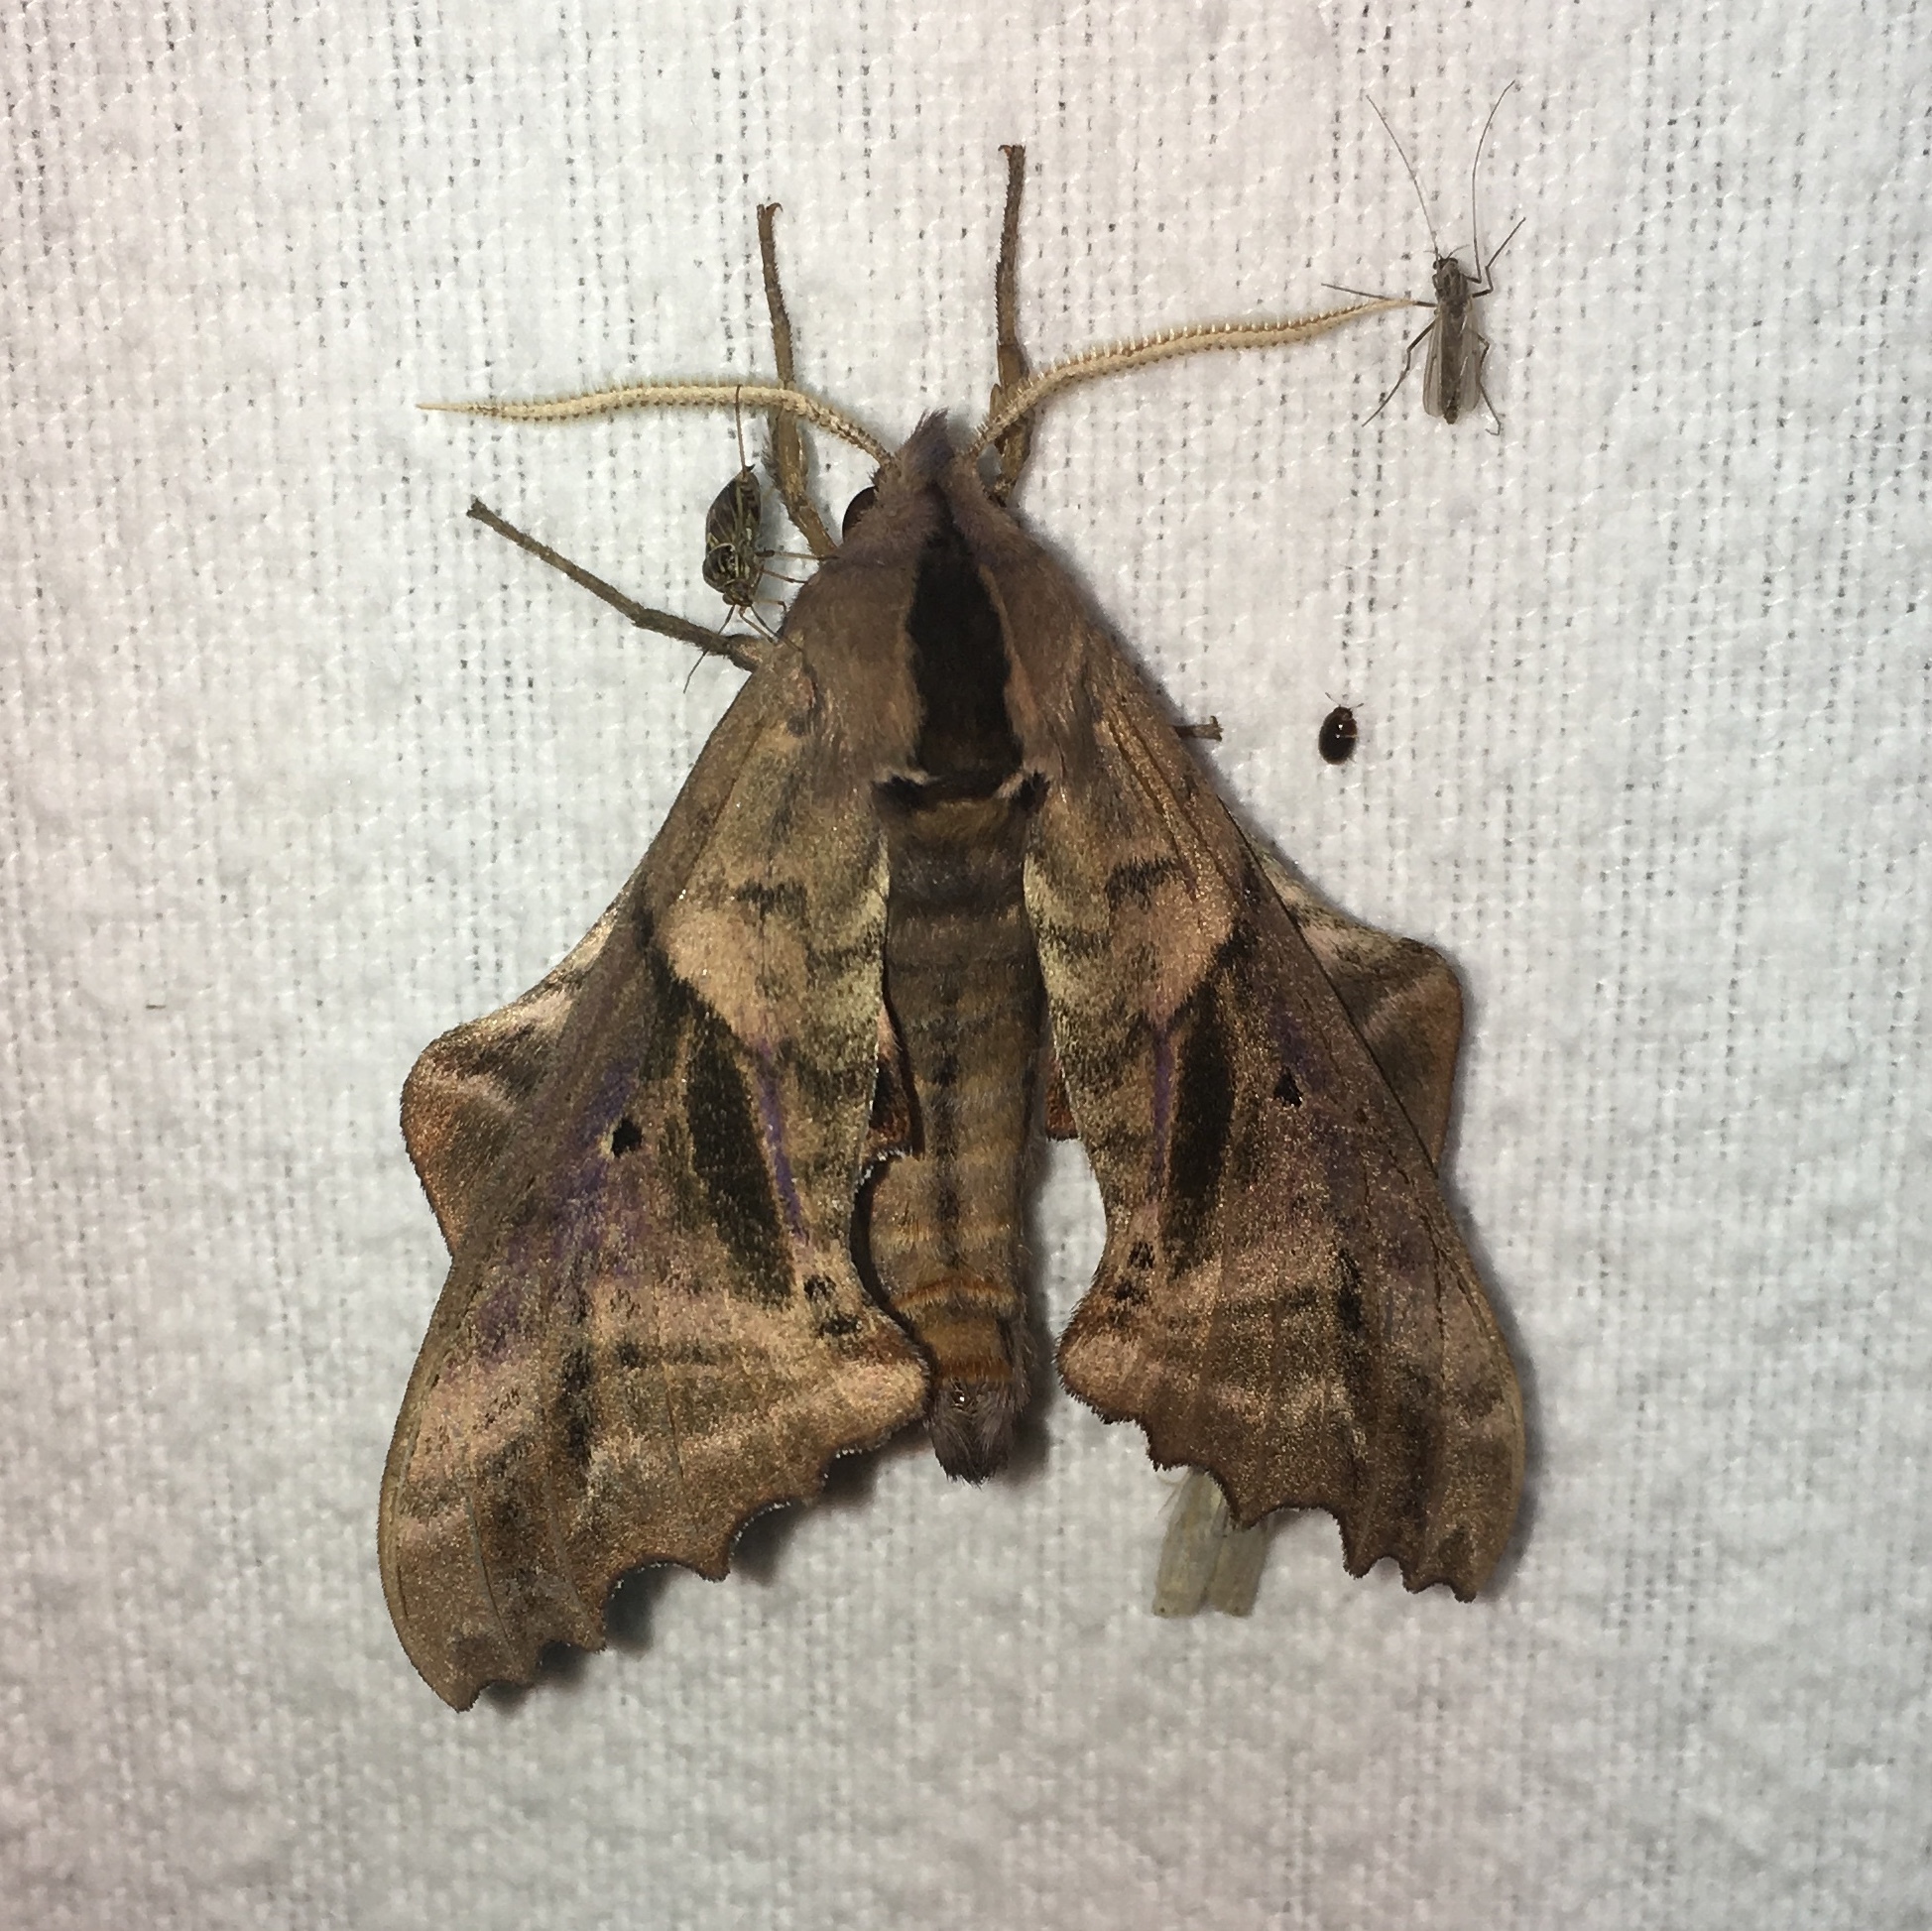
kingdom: Animalia
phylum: Arthropoda
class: Insecta
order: Lepidoptera
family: Sphingidae
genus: Paonias
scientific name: Paonias excaecata
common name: Blind-eyed sphinx
